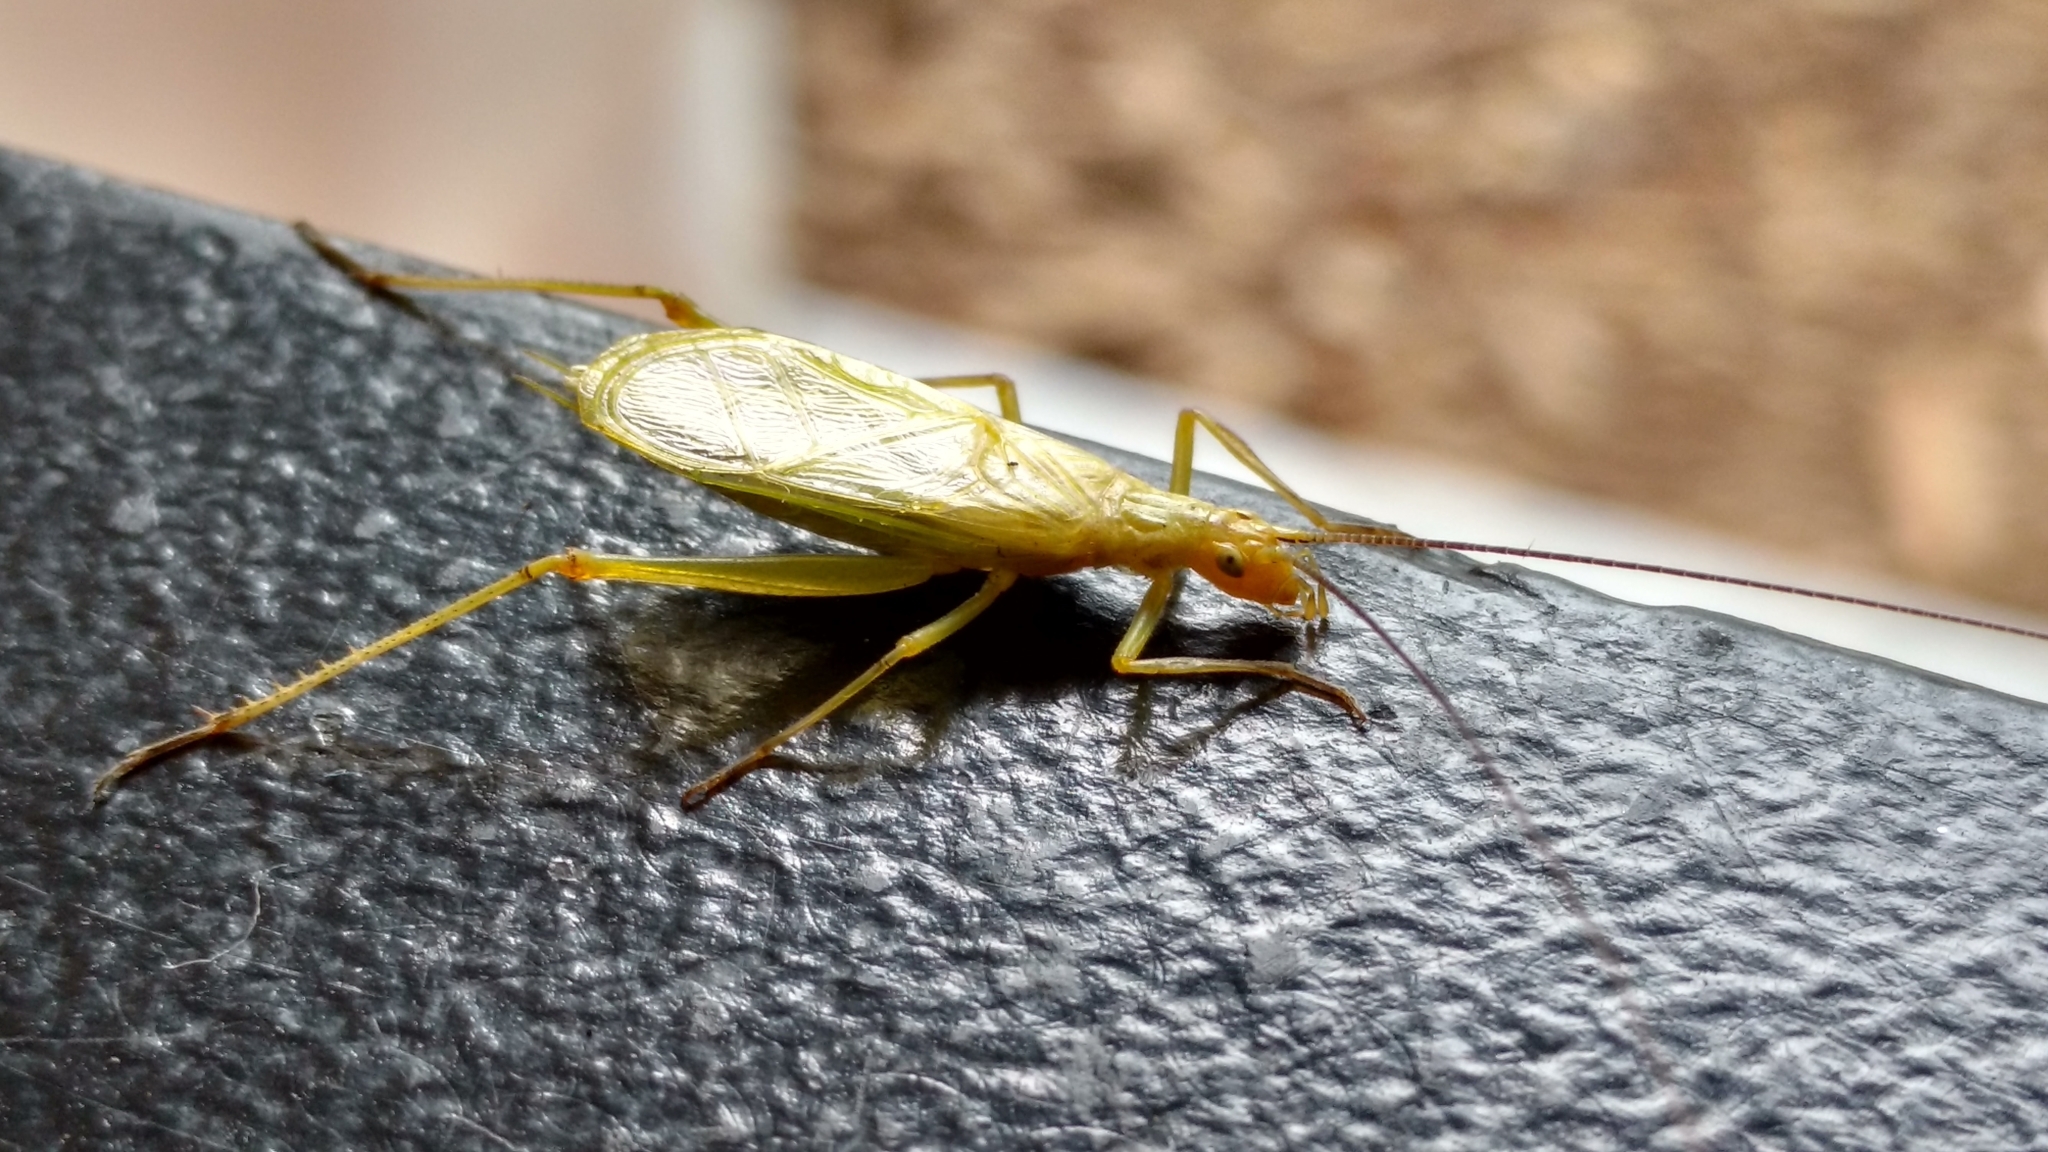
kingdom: Animalia
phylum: Arthropoda
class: Insecta
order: Orthoptera
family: Gryllidae
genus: Oecanthus
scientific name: Oecanthus nigricornis
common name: Black-horned tree cricket
